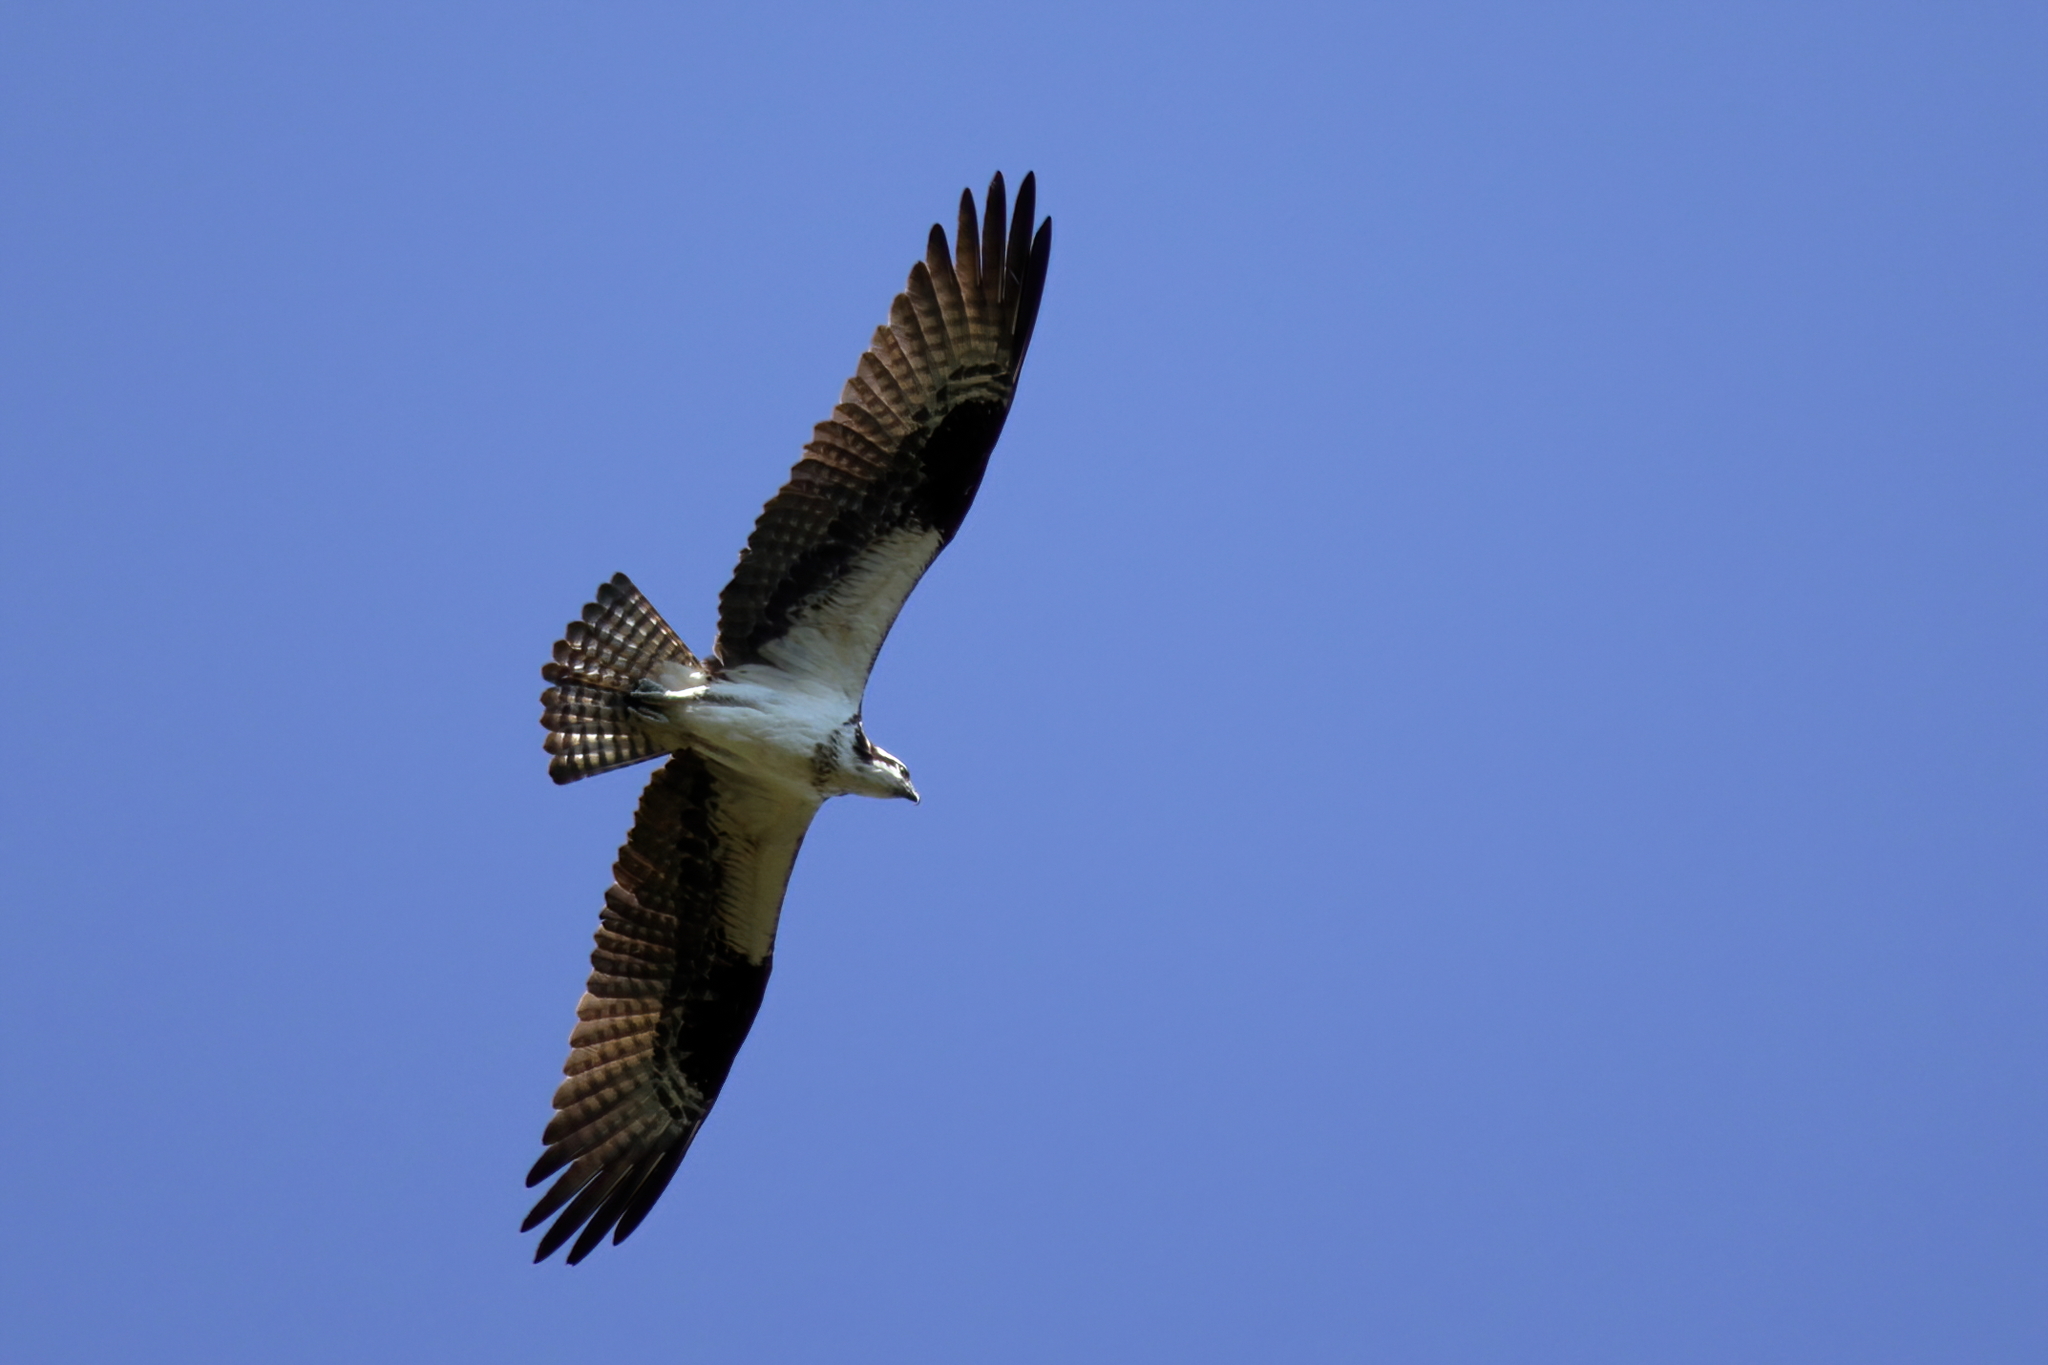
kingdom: Animalia
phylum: Chordata
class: Aves
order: Accipitriformes
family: Pandionidae
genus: Pandion
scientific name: Pandion haliaetus
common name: Osprey
